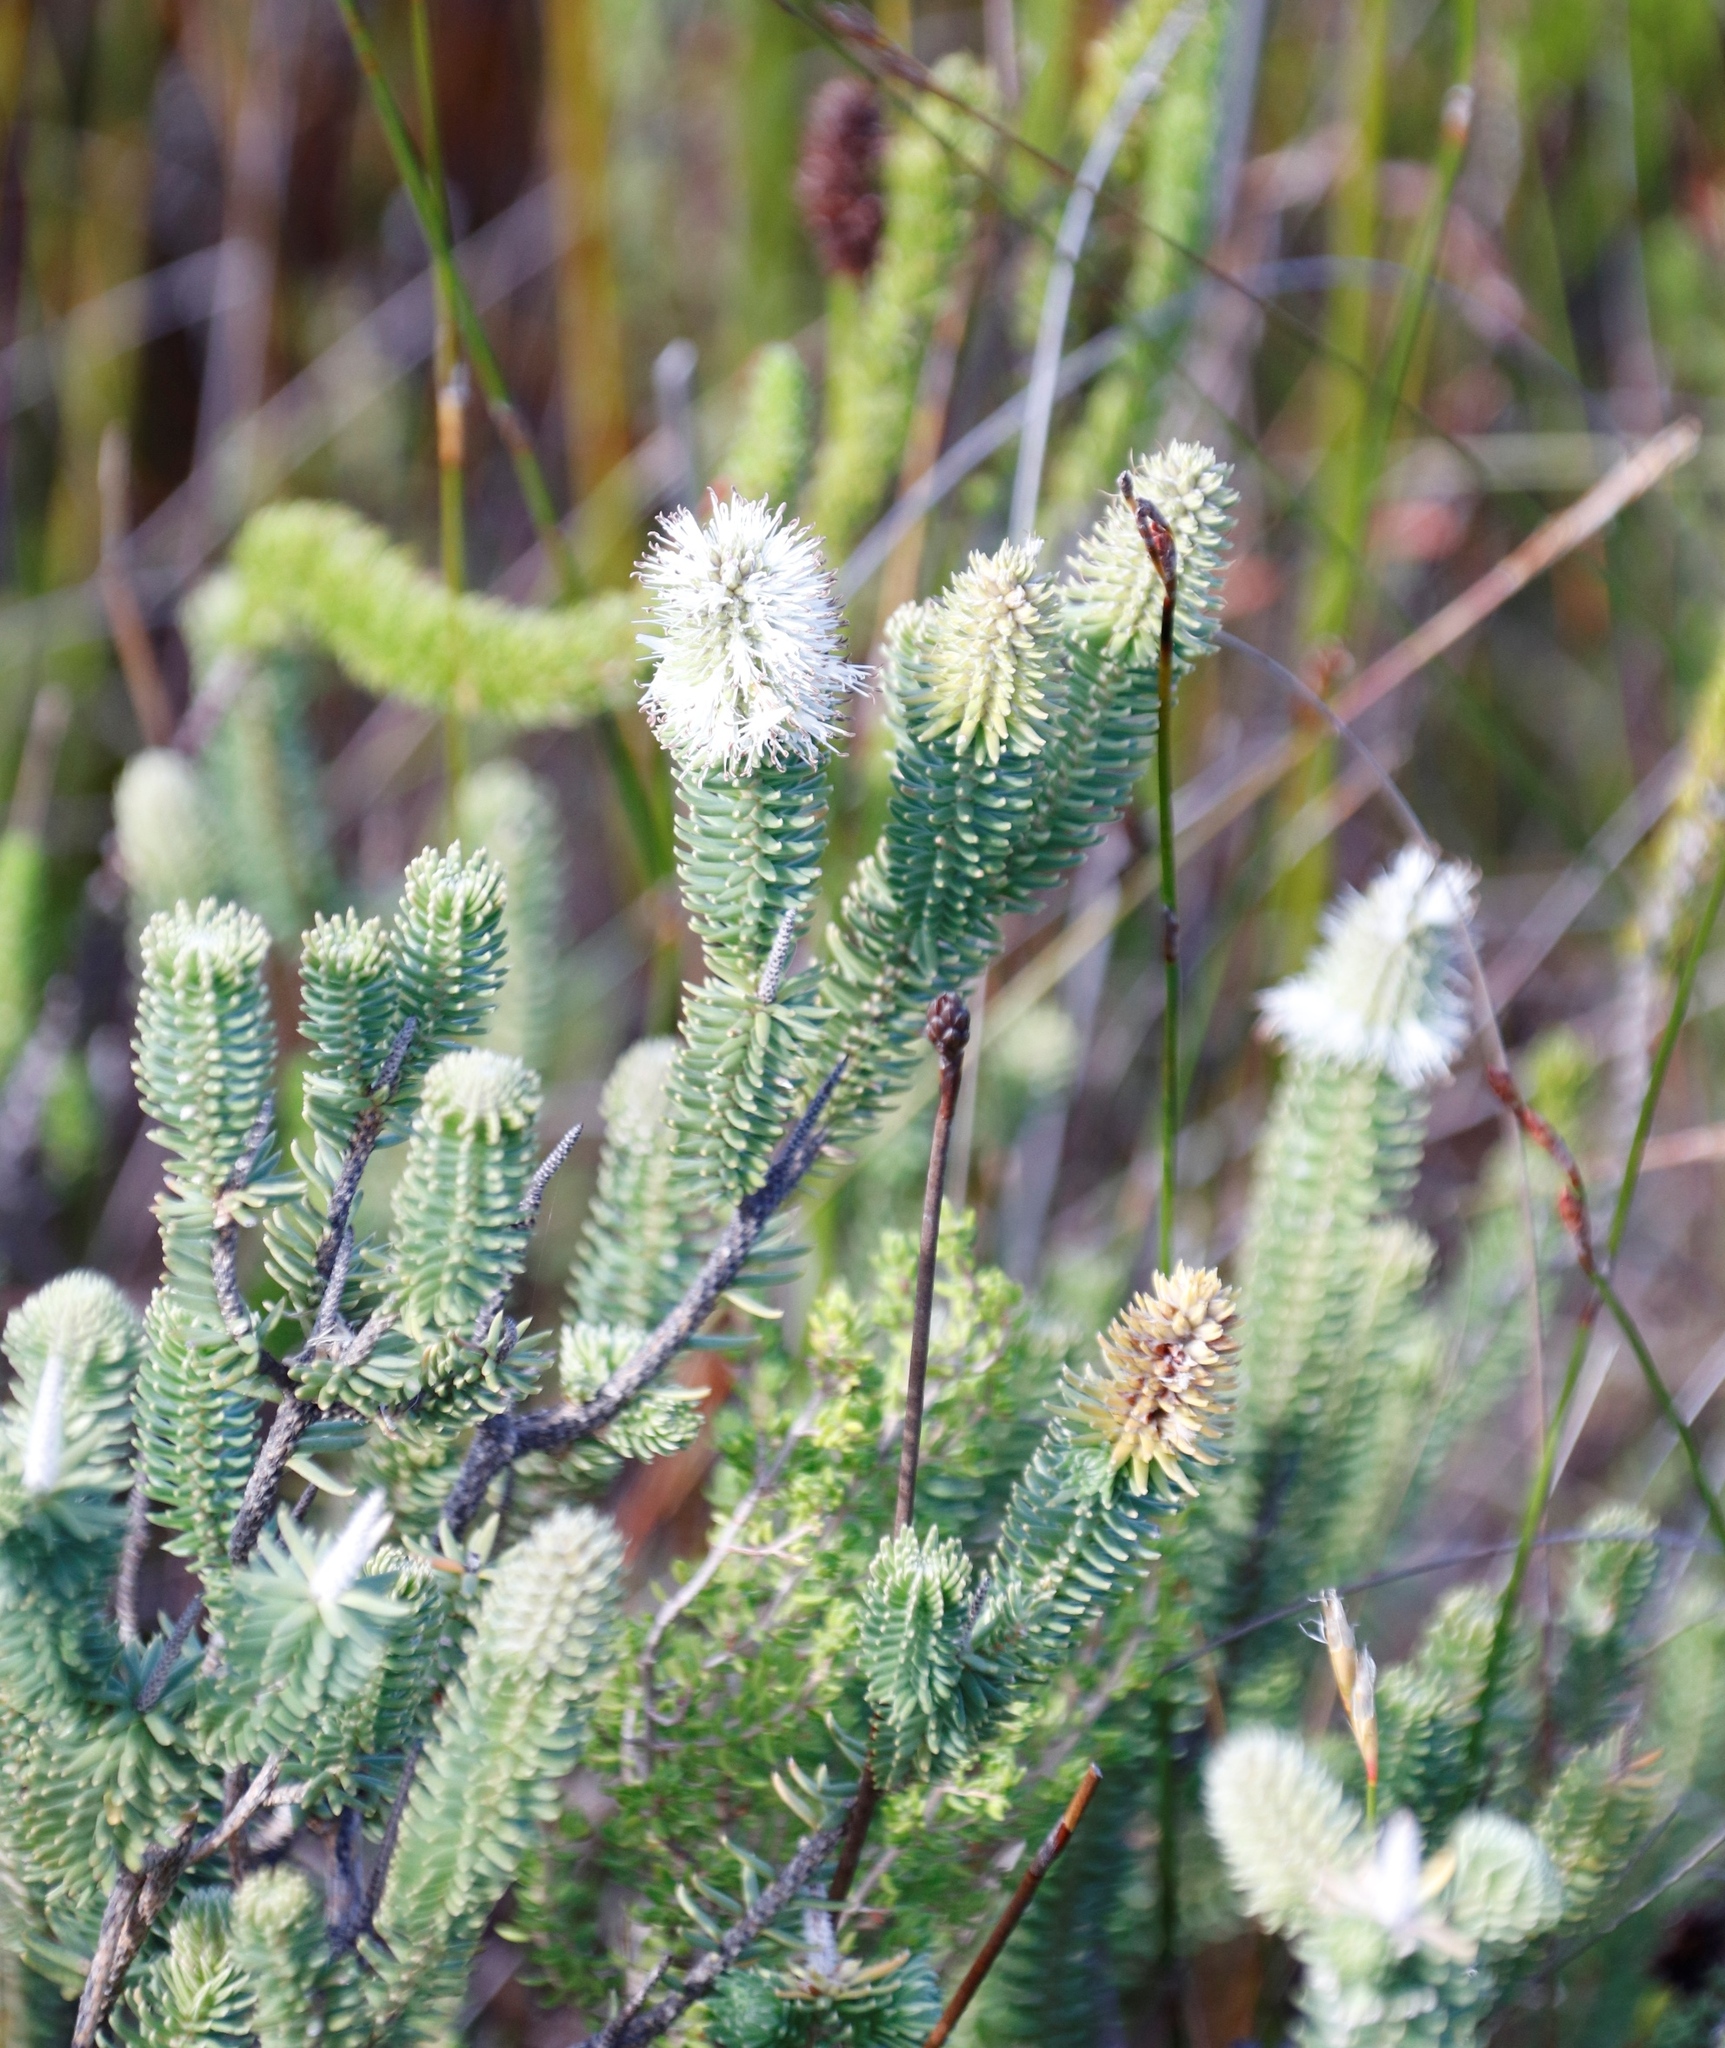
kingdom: Plantae
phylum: Tracheophyta
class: Magnoliopsida
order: Lamiales
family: Stilbaceae
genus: Stilbe
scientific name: Stilbe vestita
